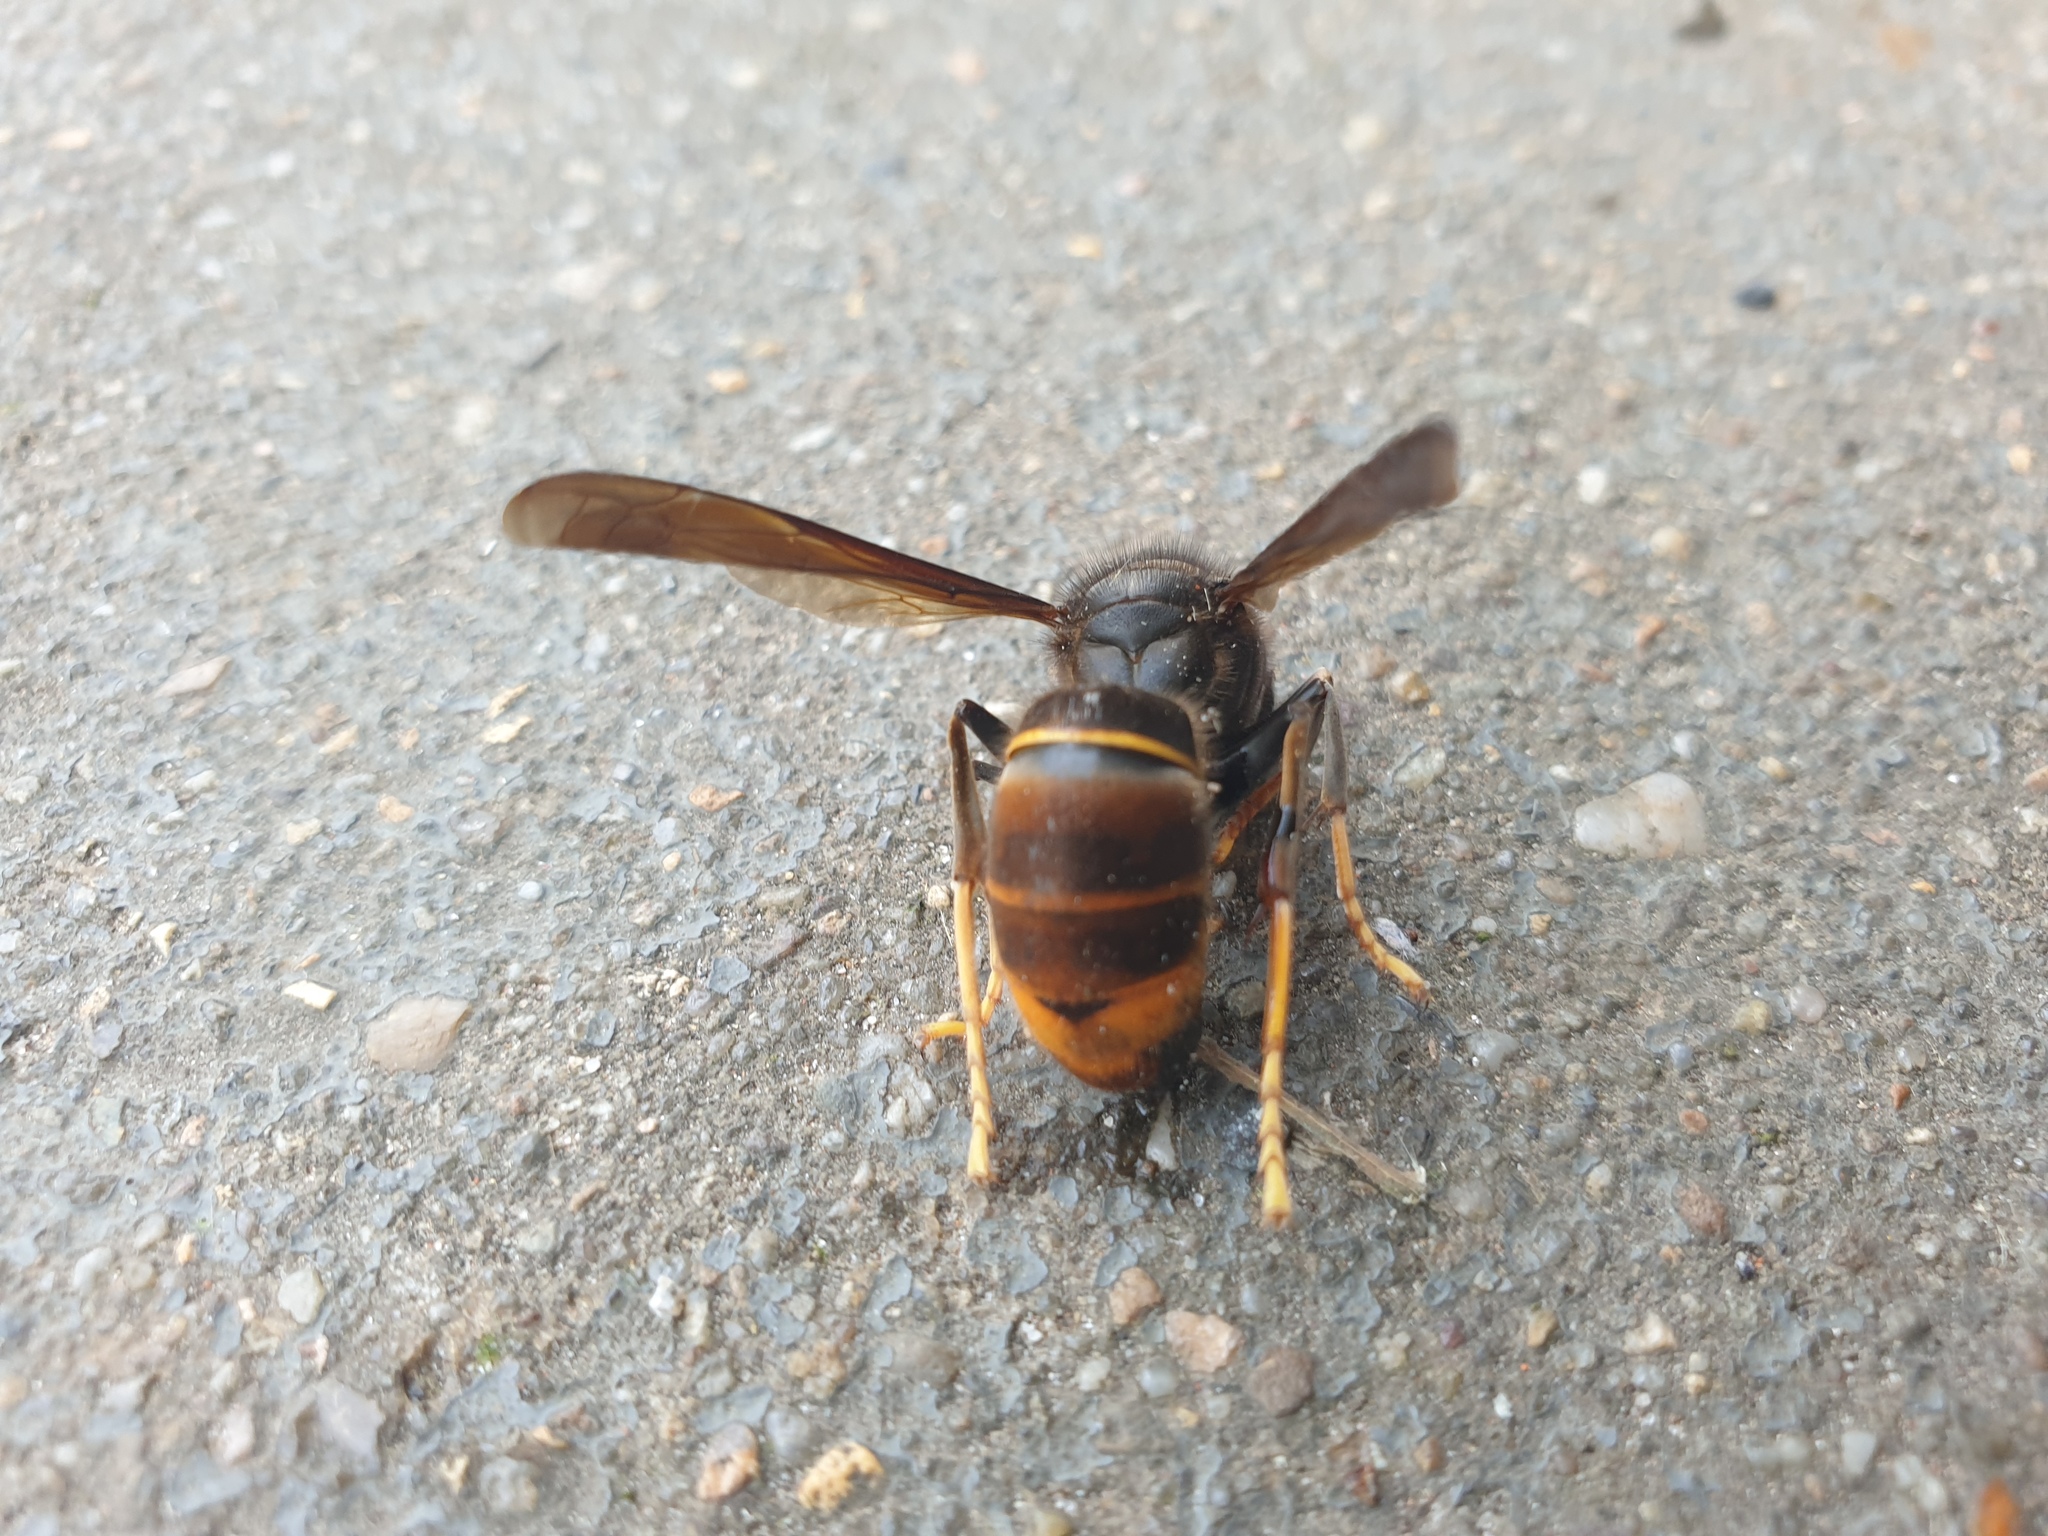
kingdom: Animalia
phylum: Arthropoda
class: Insecta
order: Hymenoptera
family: Vespidae
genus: Vespa
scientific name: Vespa velutina
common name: Asian hornet
